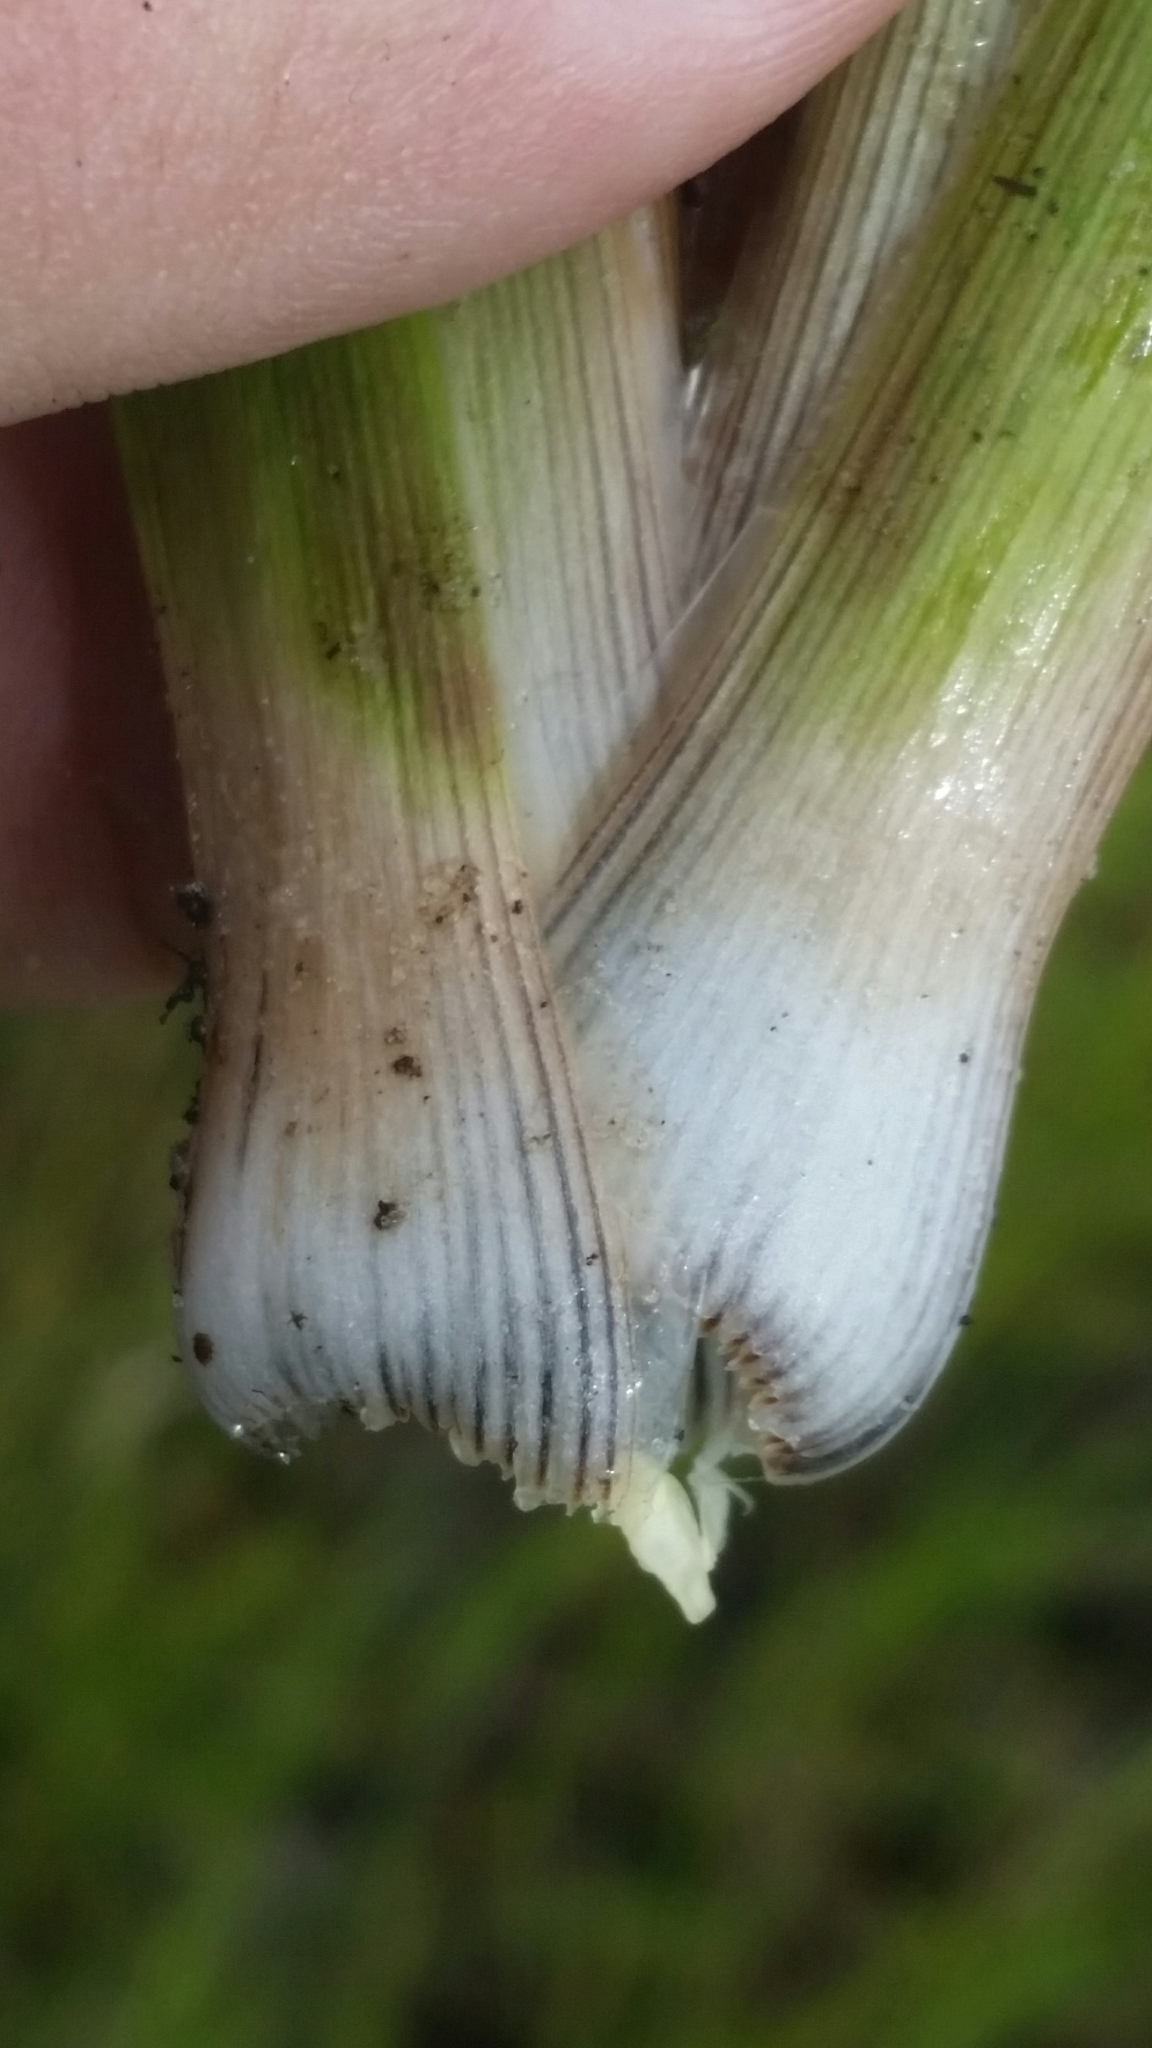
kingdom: Plantae
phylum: Tracheophyta
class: Liliopsida
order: Poales
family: Xyridaceae
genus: Xyris
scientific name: Xyris ambigua
